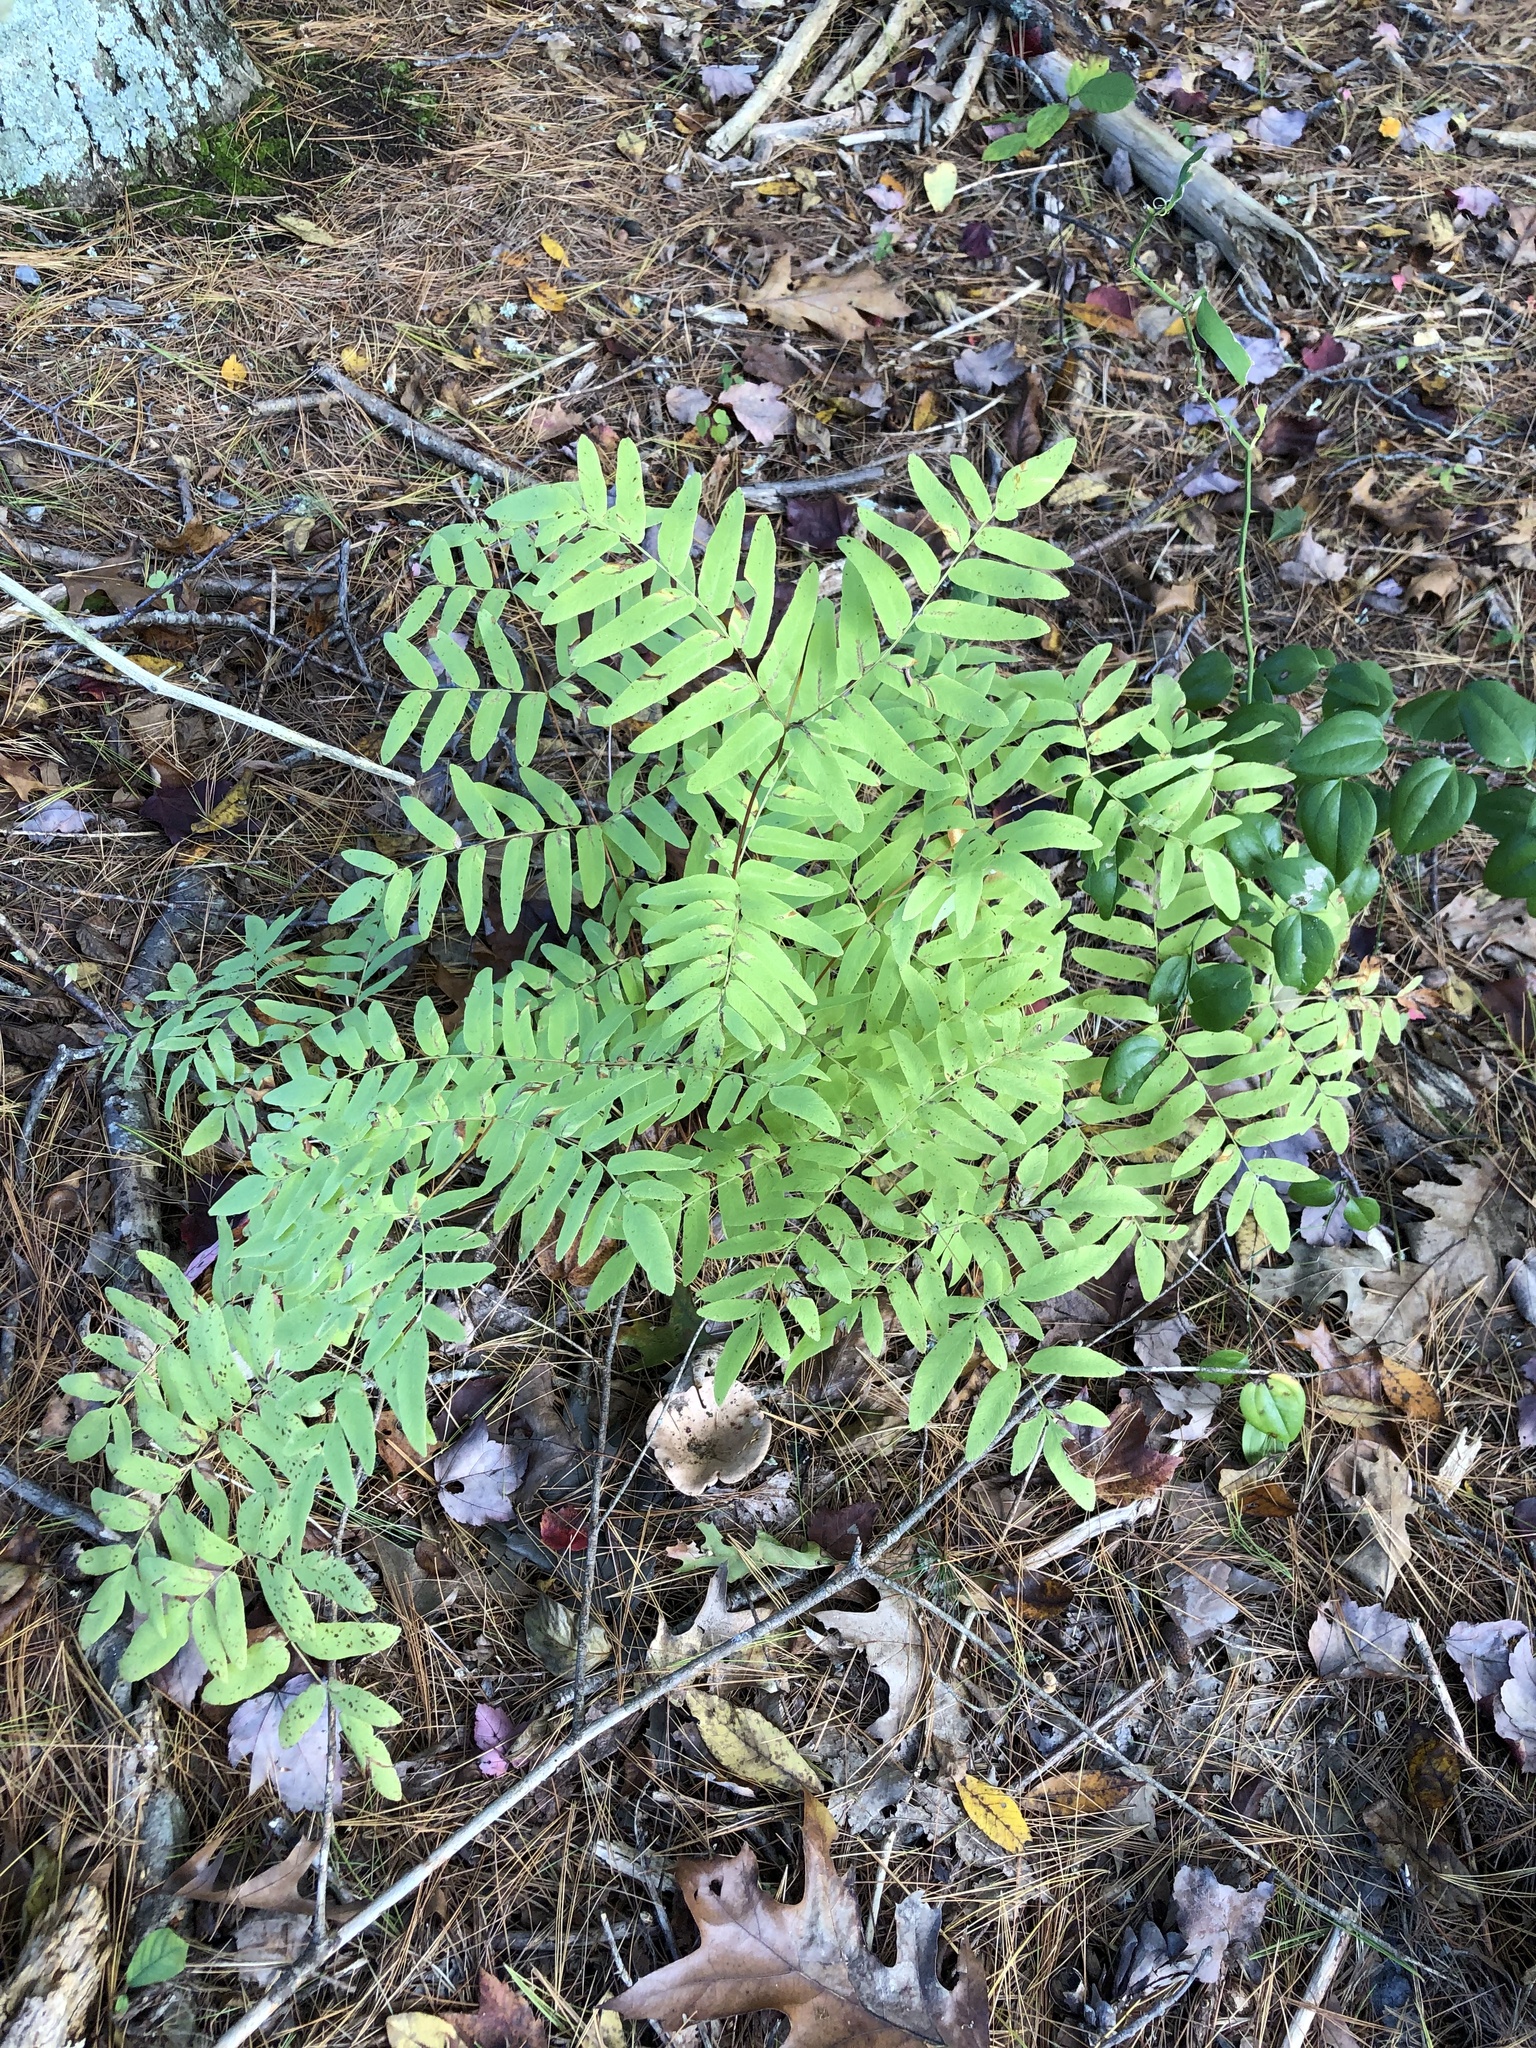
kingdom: Plantae
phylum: Tracheophyta
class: Polypodiopsida
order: Osmundales
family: Osmundaceae
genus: Osmunda
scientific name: Osmunda spectabilis
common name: American royal fern
